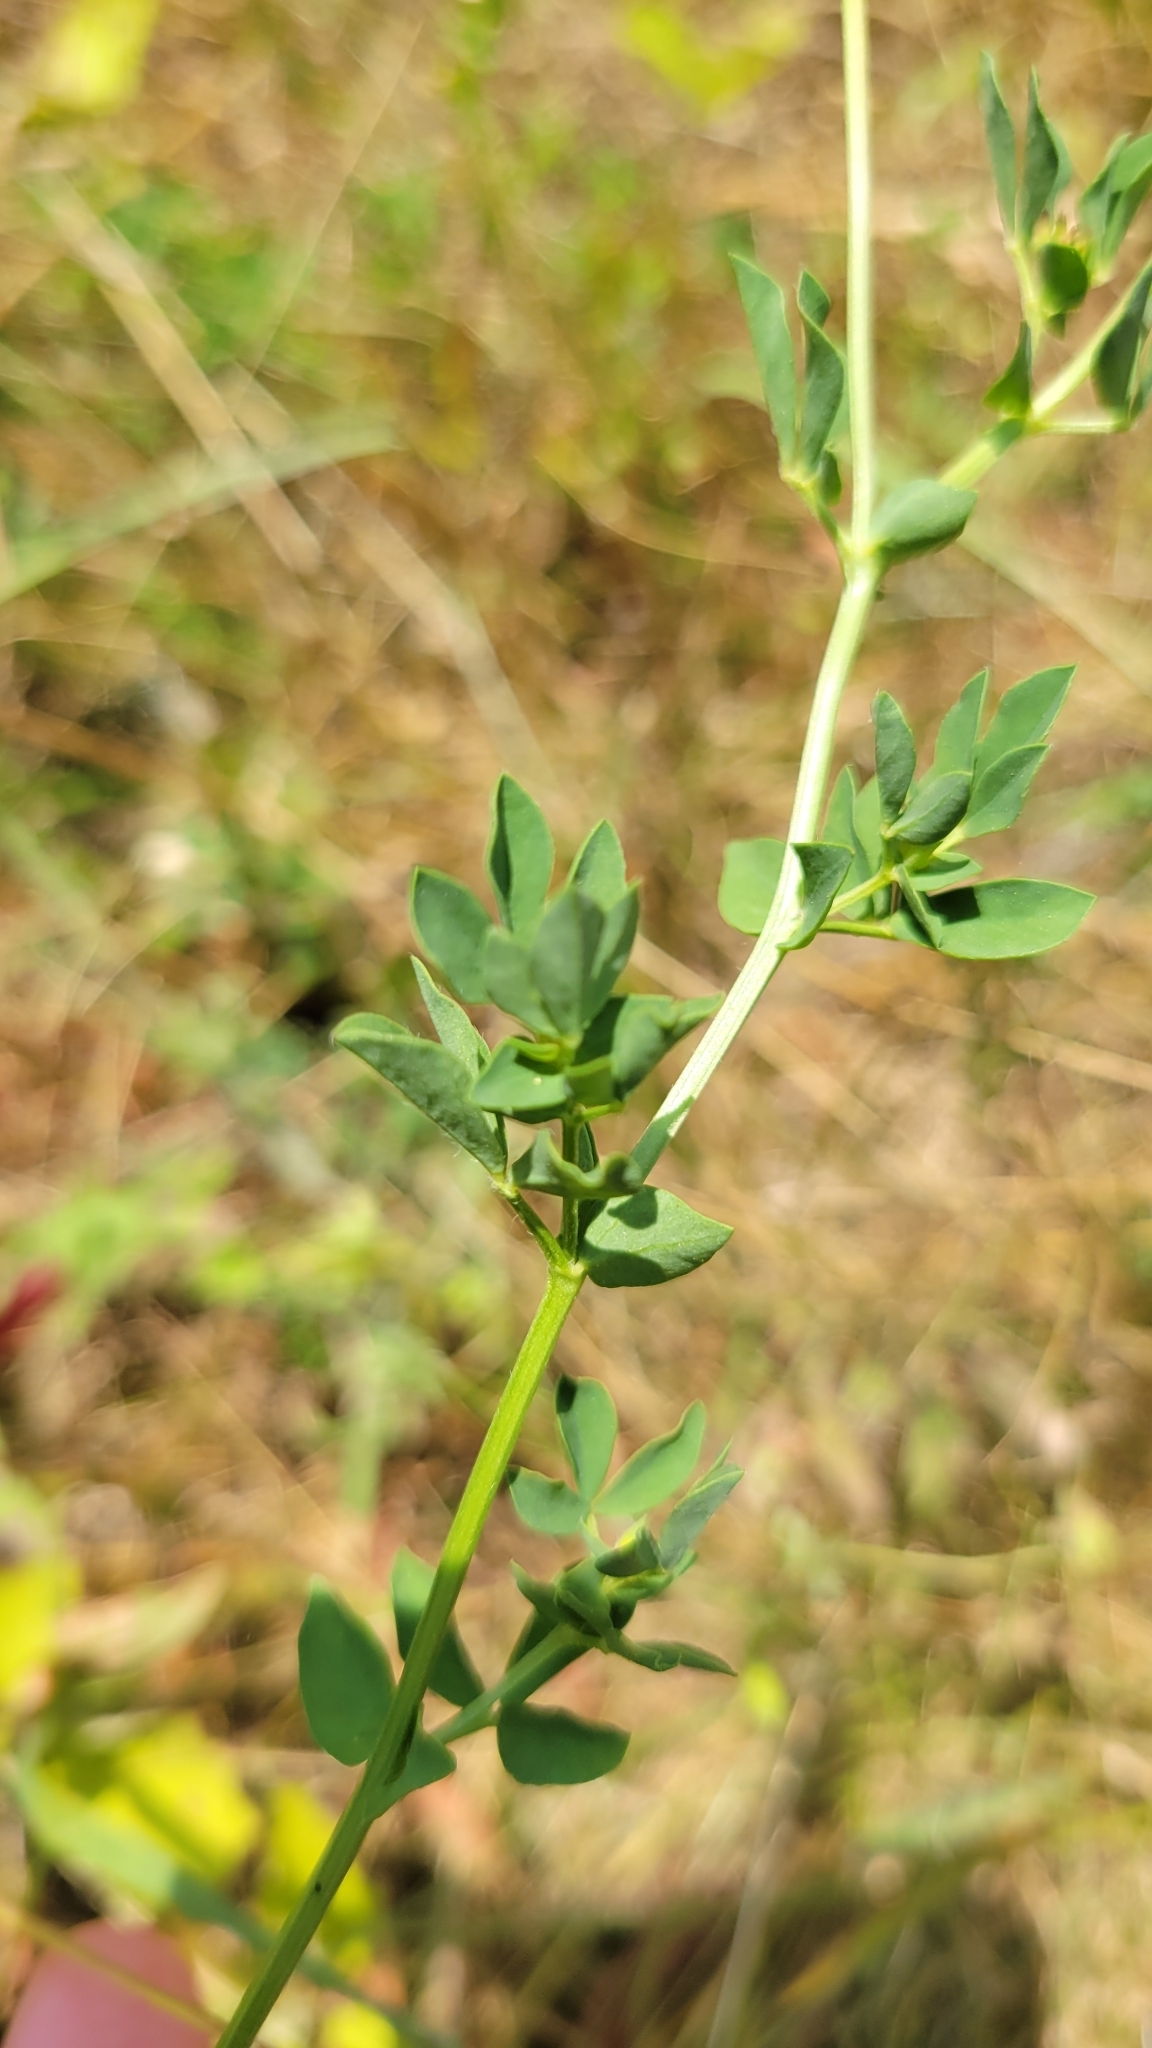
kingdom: Plantae
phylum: Tracheophyta
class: Magnoliopsida
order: Fabales
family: Fabaceae
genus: Lotus
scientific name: Lotus corniculatus
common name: Common bird's-foot-trefoil
